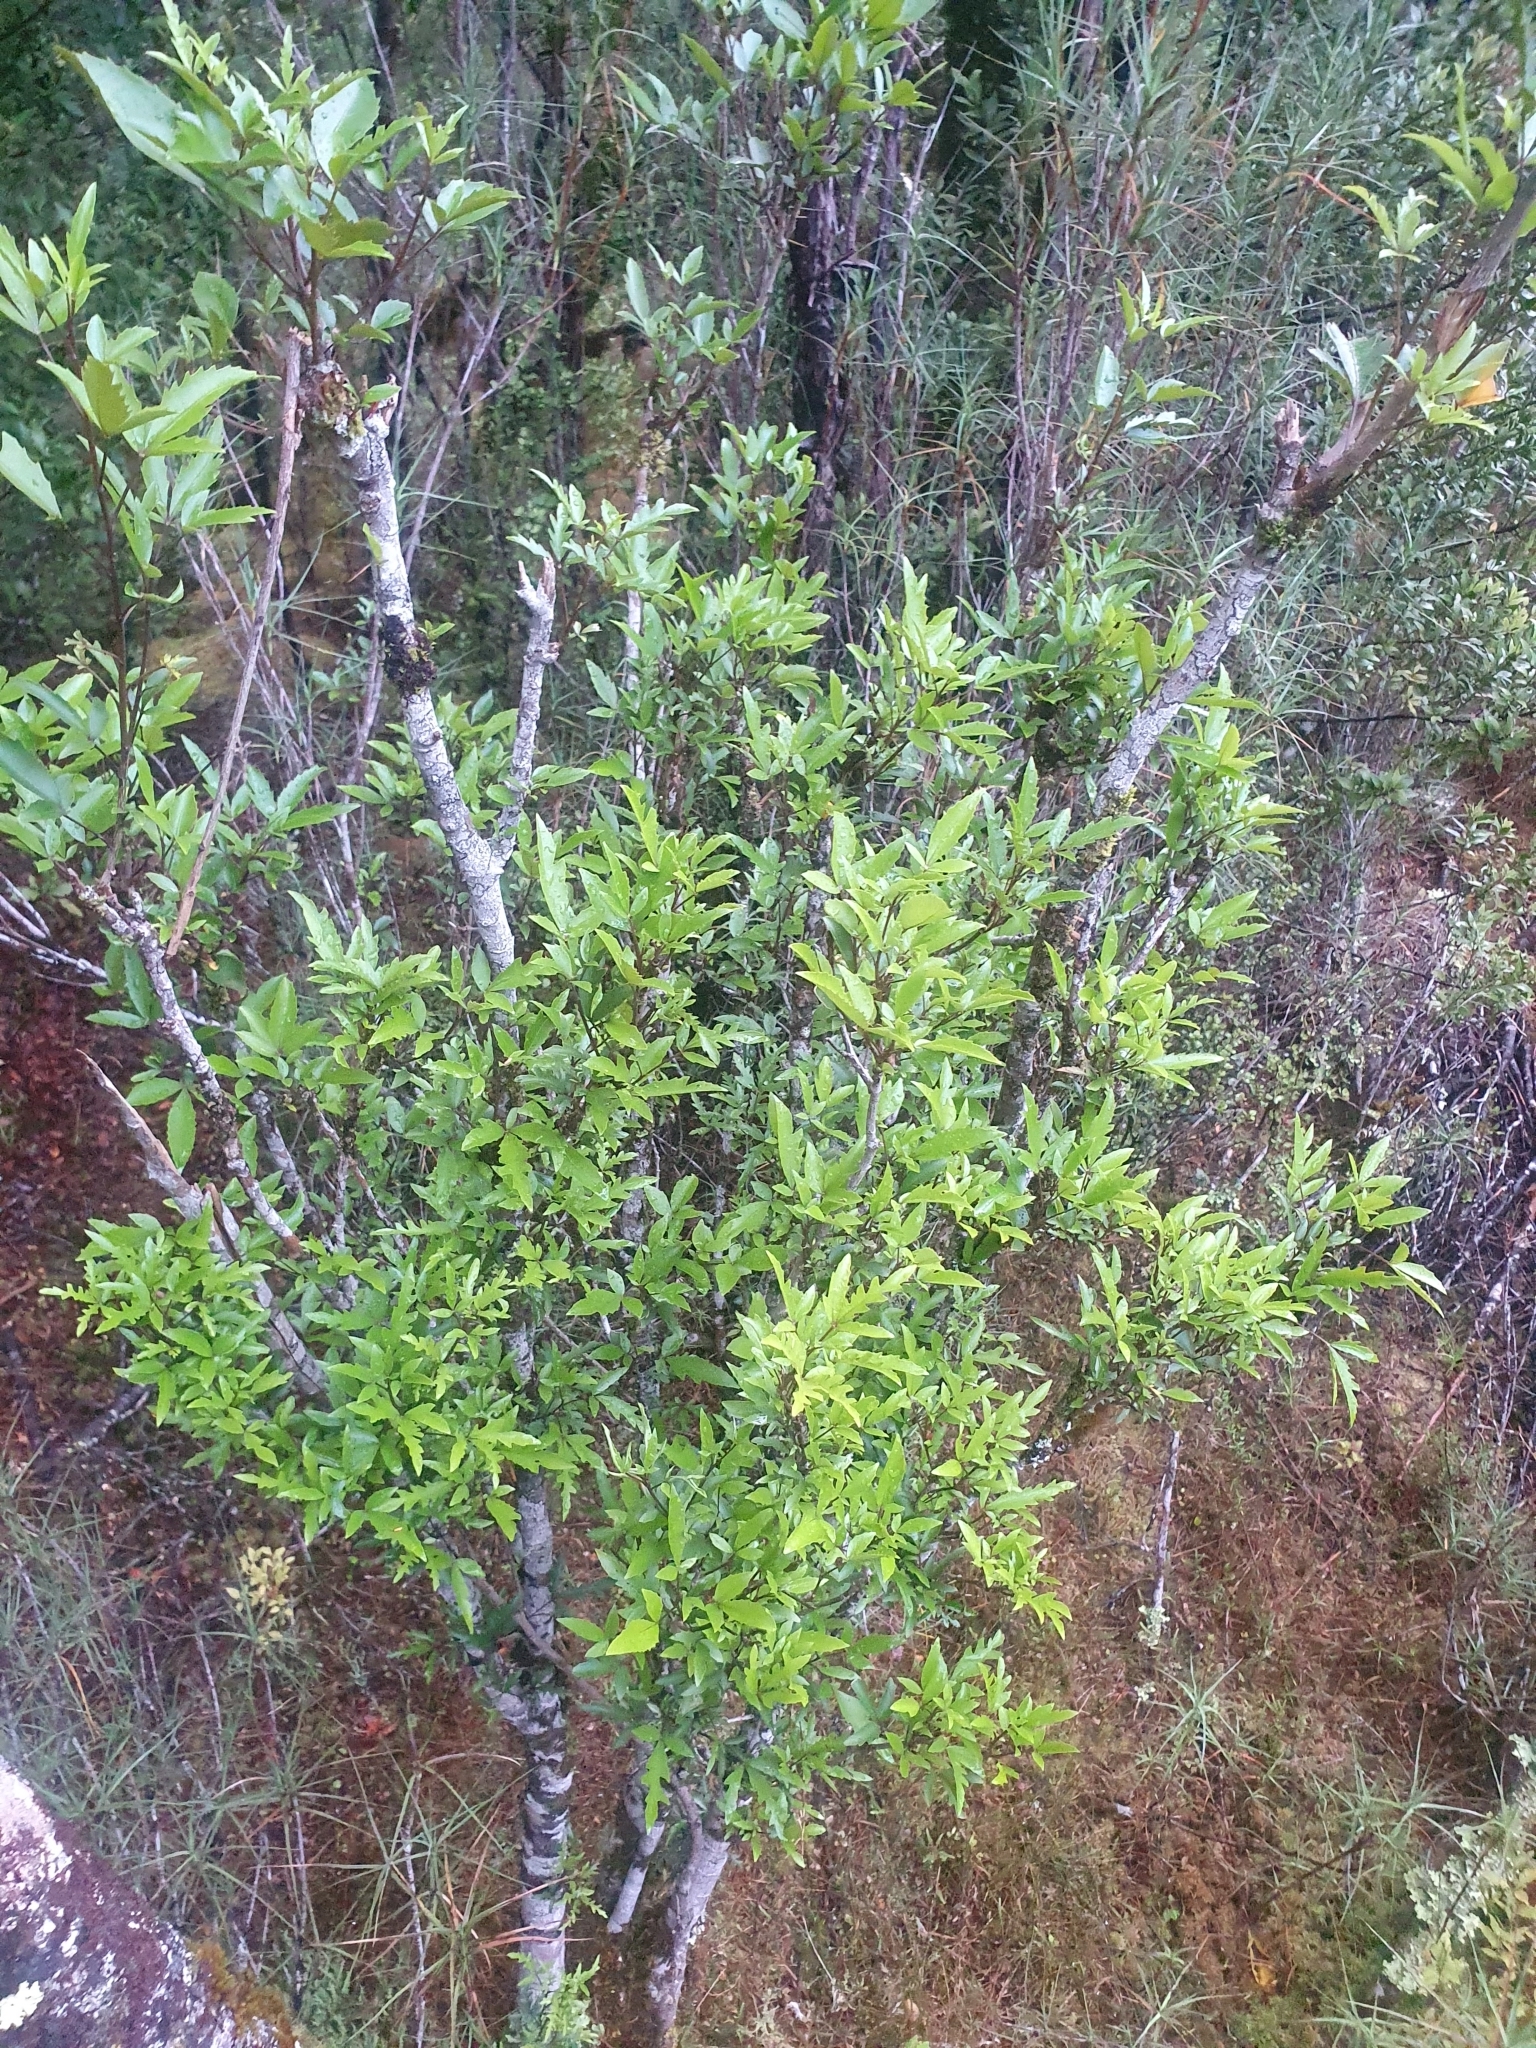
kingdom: Plantae
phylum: Tracheophyta
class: Magnoliopsida
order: Apiales
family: Araliaceae
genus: Raukaua
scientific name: Raukaua simplex
